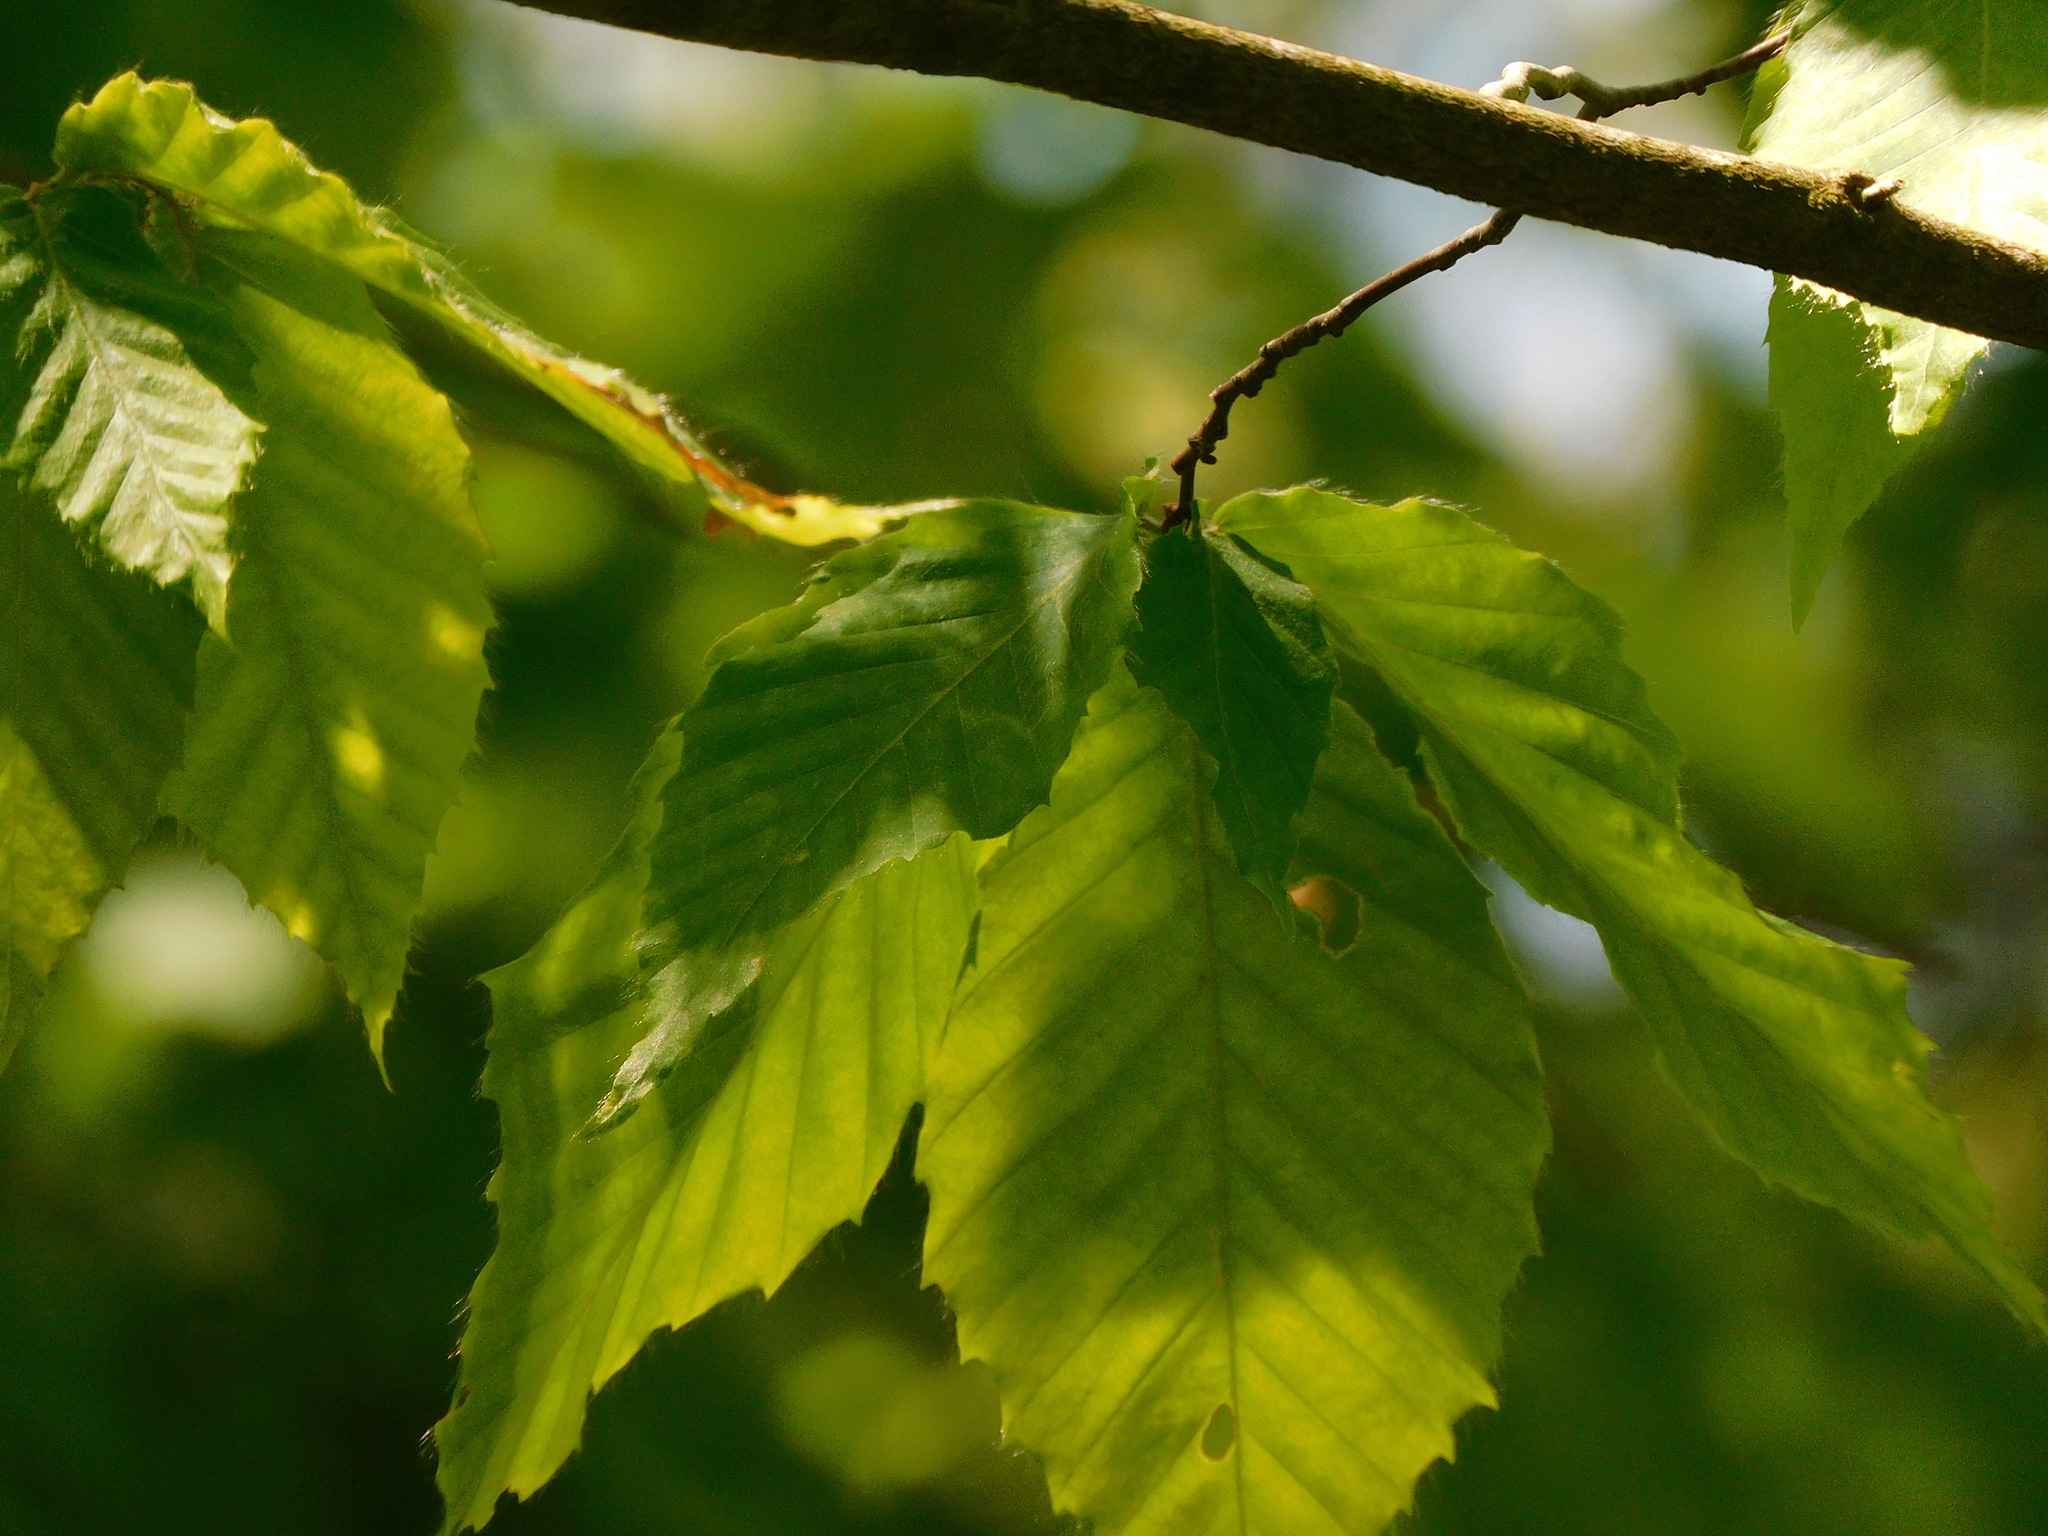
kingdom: Plantae
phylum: Tracheophyta
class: Magnoliopsida
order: Fagales
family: Fagaceae
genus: Fagus
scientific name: Fagus grandifolia
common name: American beech
